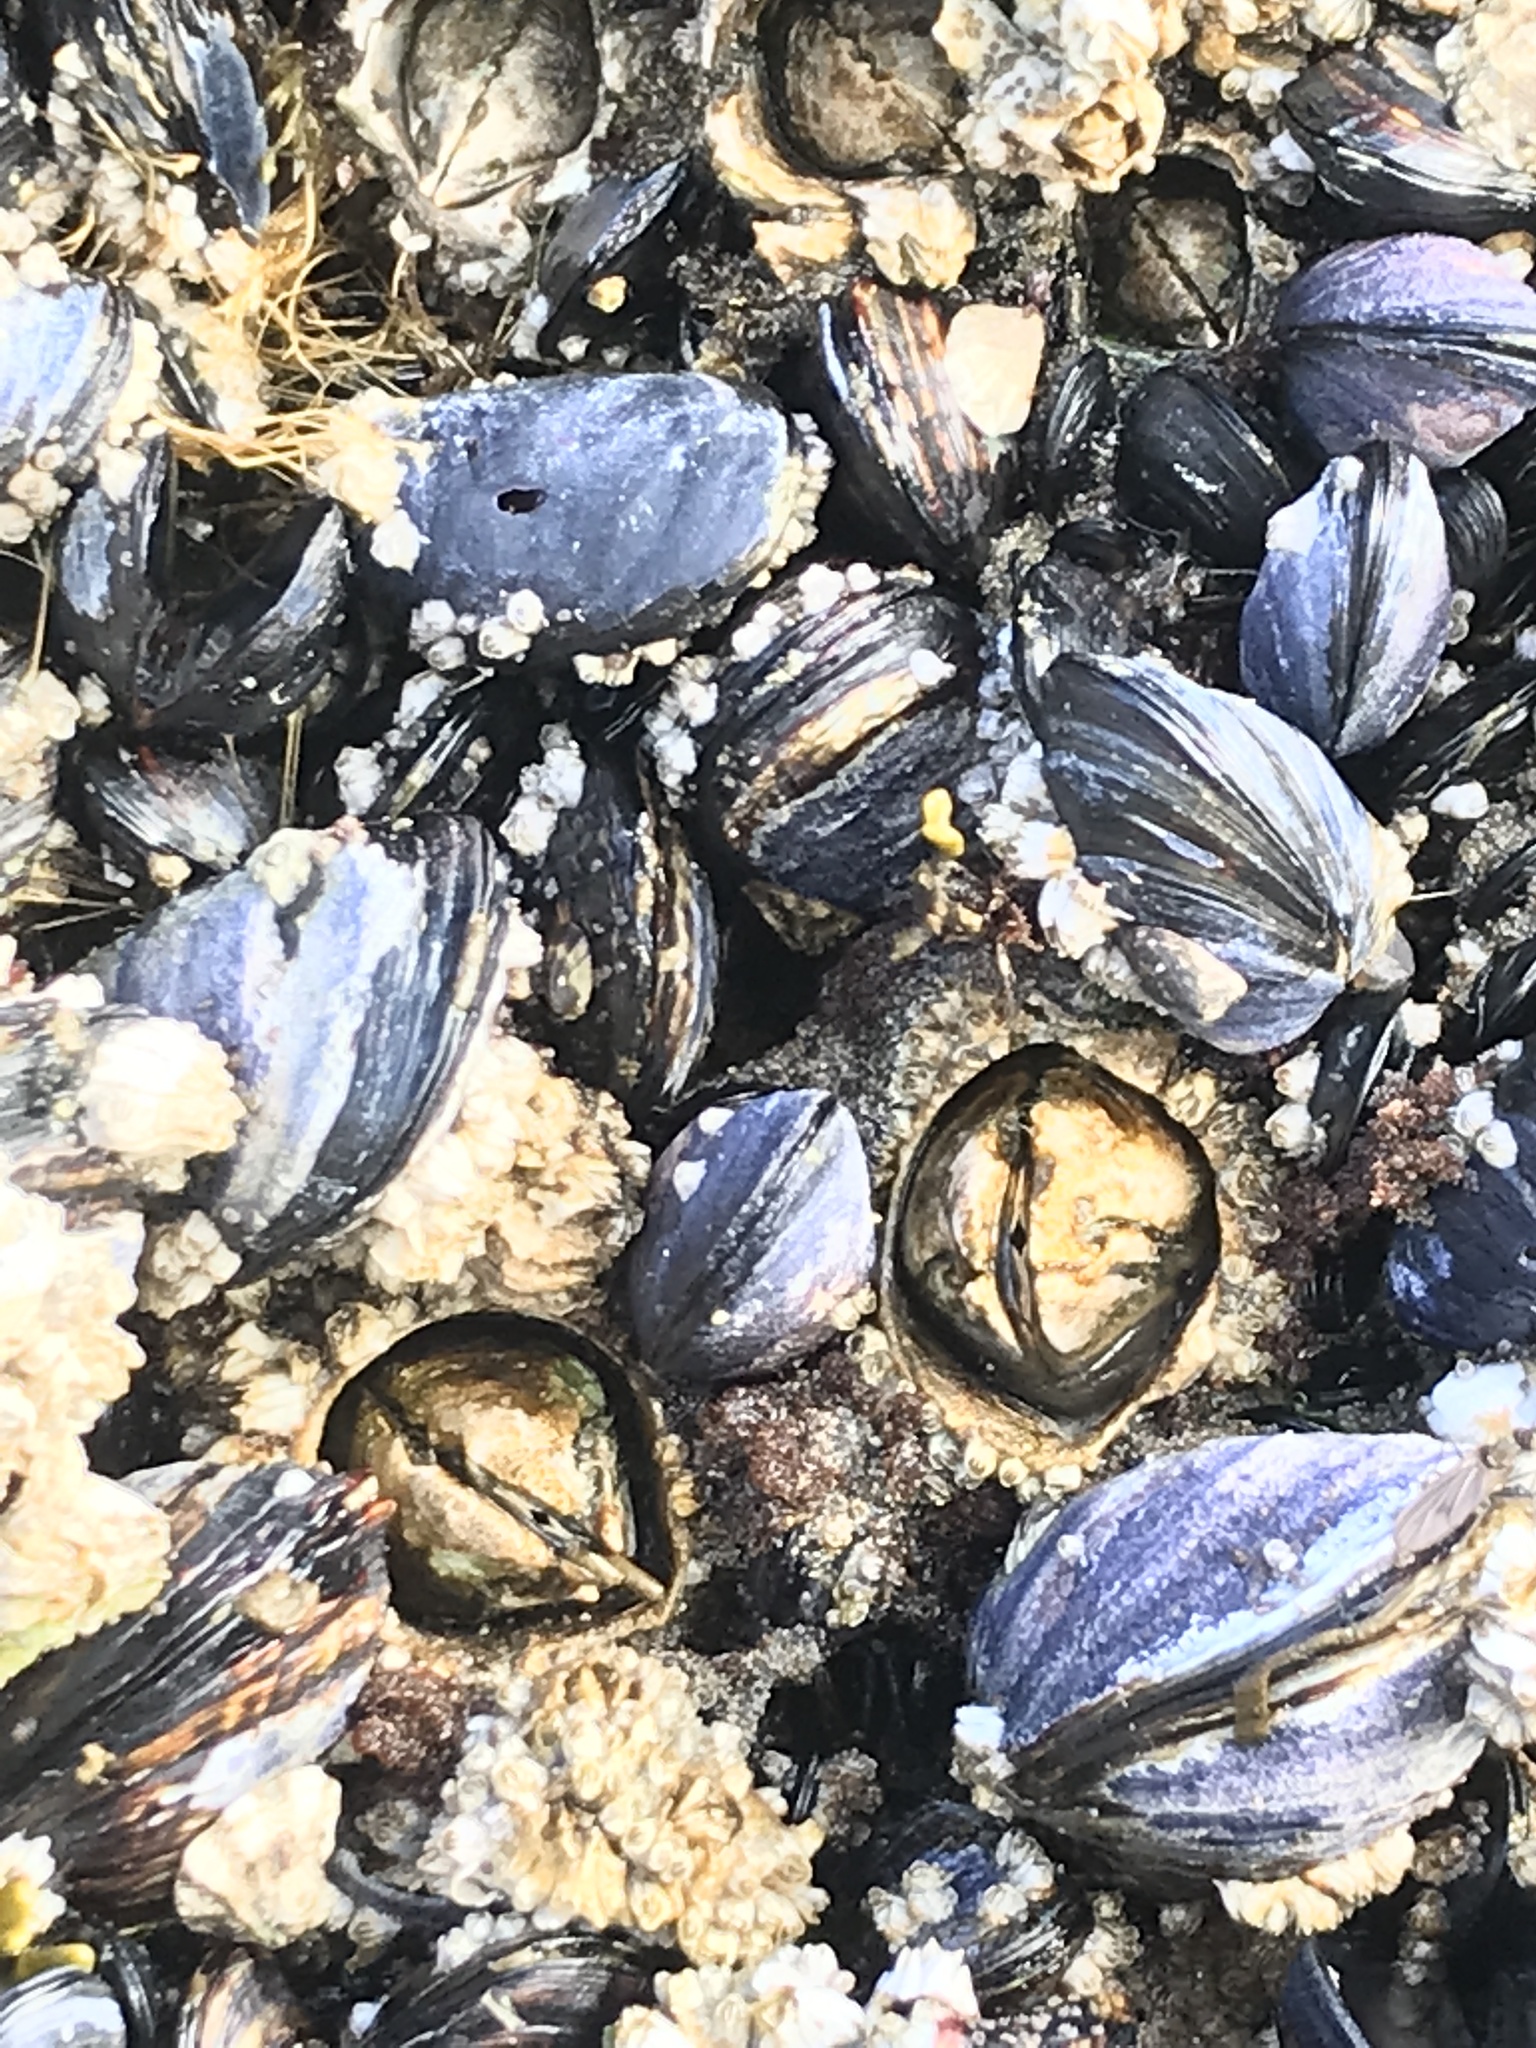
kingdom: Animalia
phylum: Arthropoda
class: Maxillopoda
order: Sessilia
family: Archaeobalanidae
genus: Semibalanus
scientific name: Semibalanus cariosus
